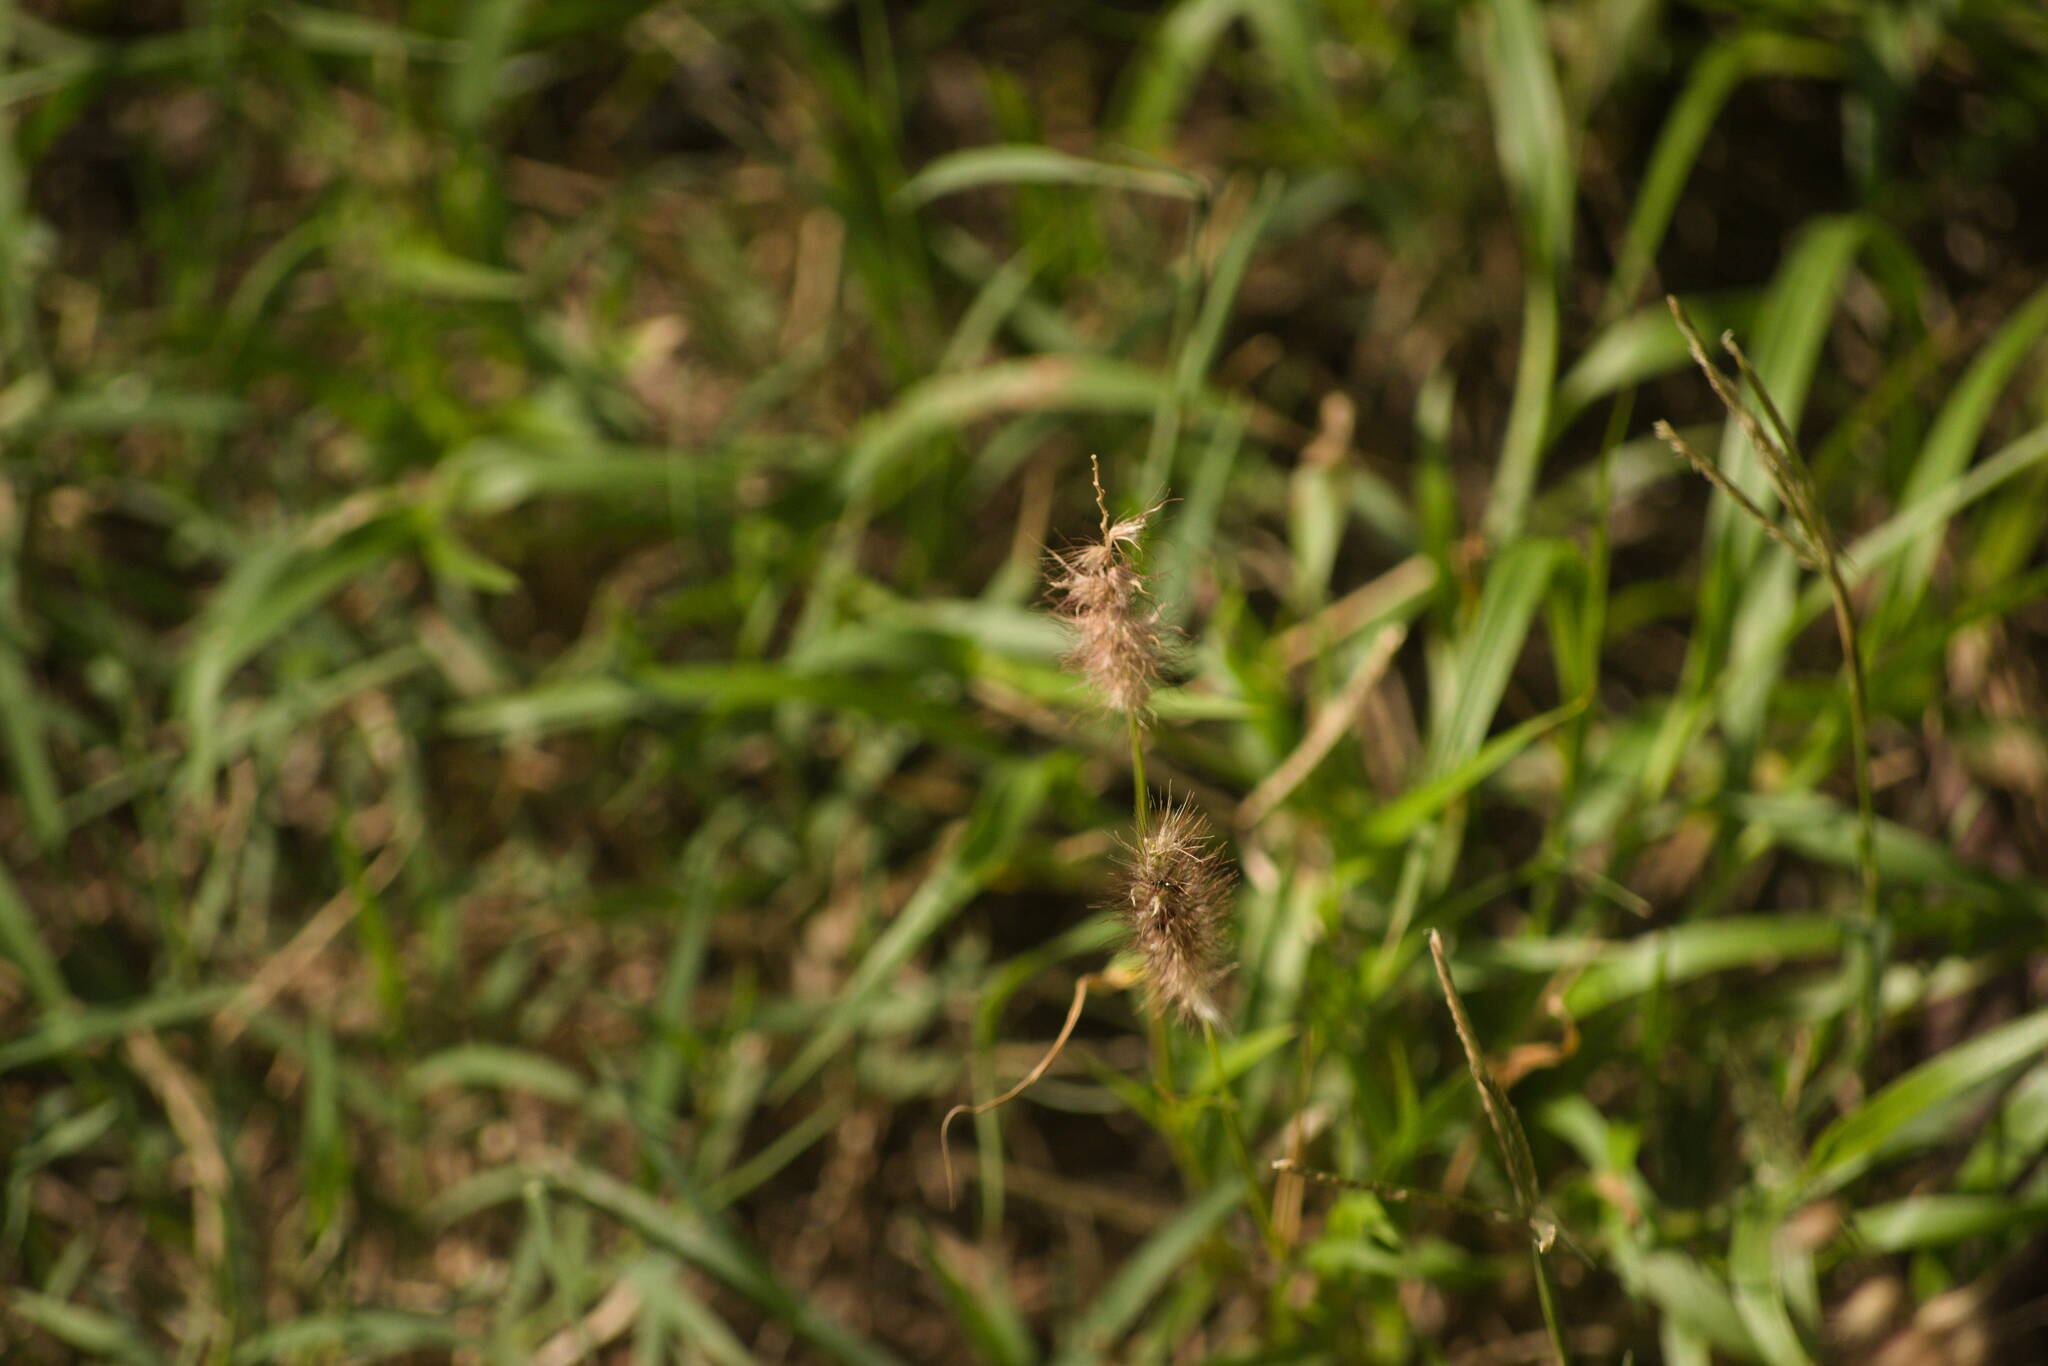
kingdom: Plantae
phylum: Tracheophyta
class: Liliopsida
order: Poales
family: Poaceae
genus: Cenchrus
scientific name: Cenchrus ciliaris
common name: Buffelgrass
